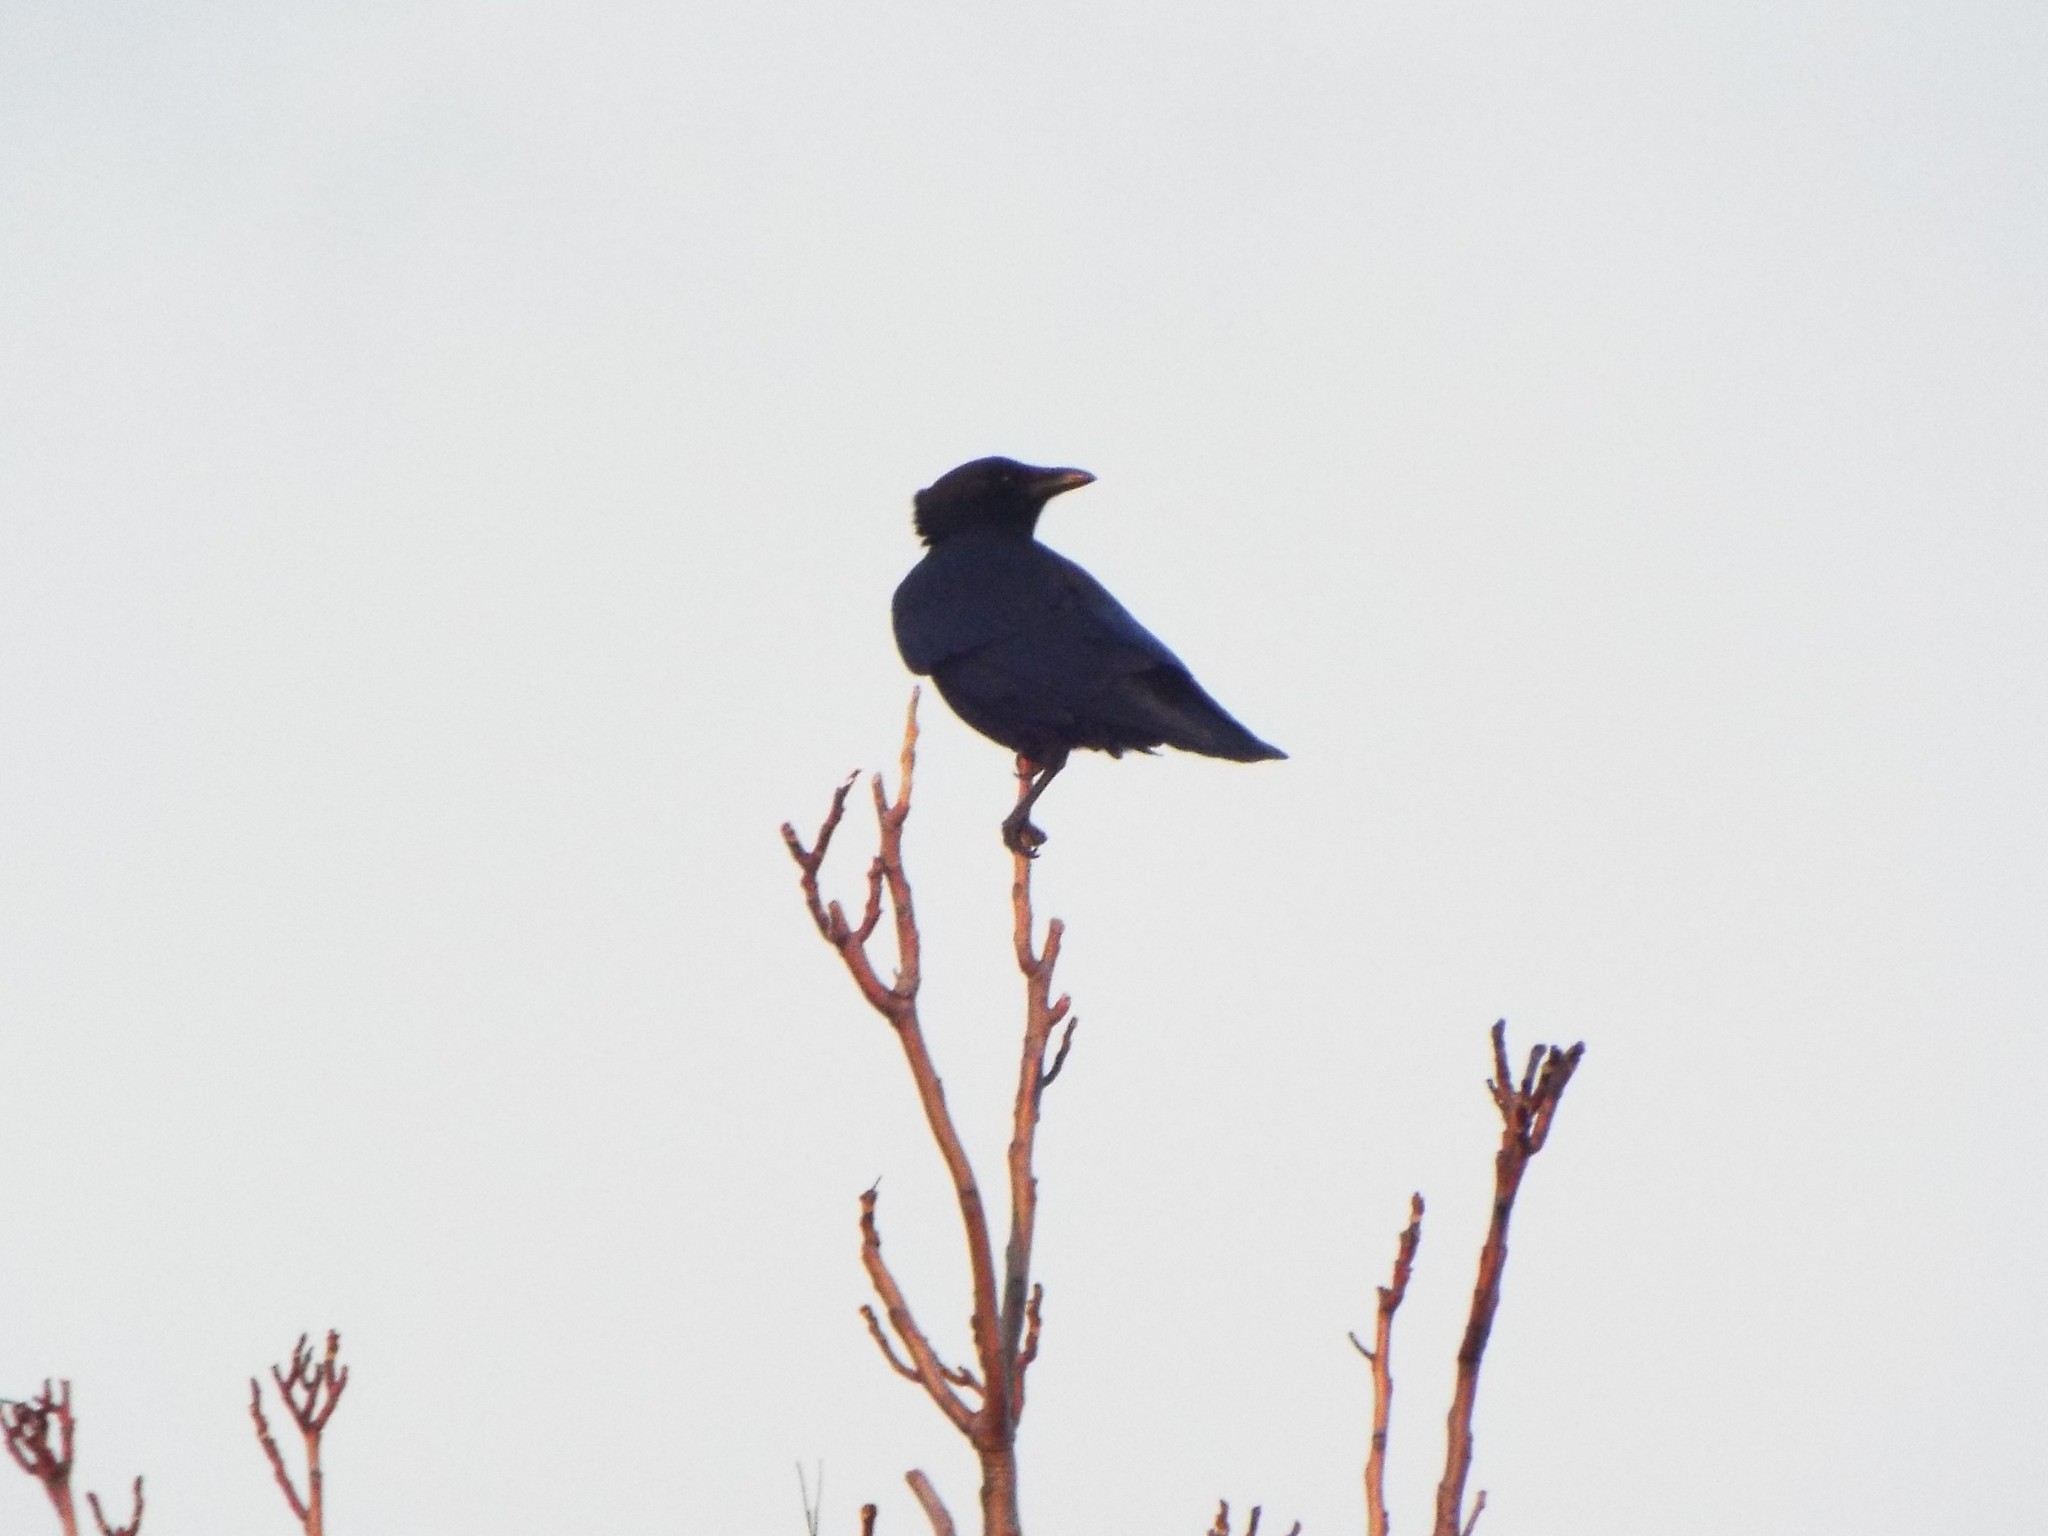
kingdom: Animalia
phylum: Chordata
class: Aves
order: Passeriformes
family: Corvidae
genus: Corvus
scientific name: Corvus brachyrhynchos
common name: American crow
